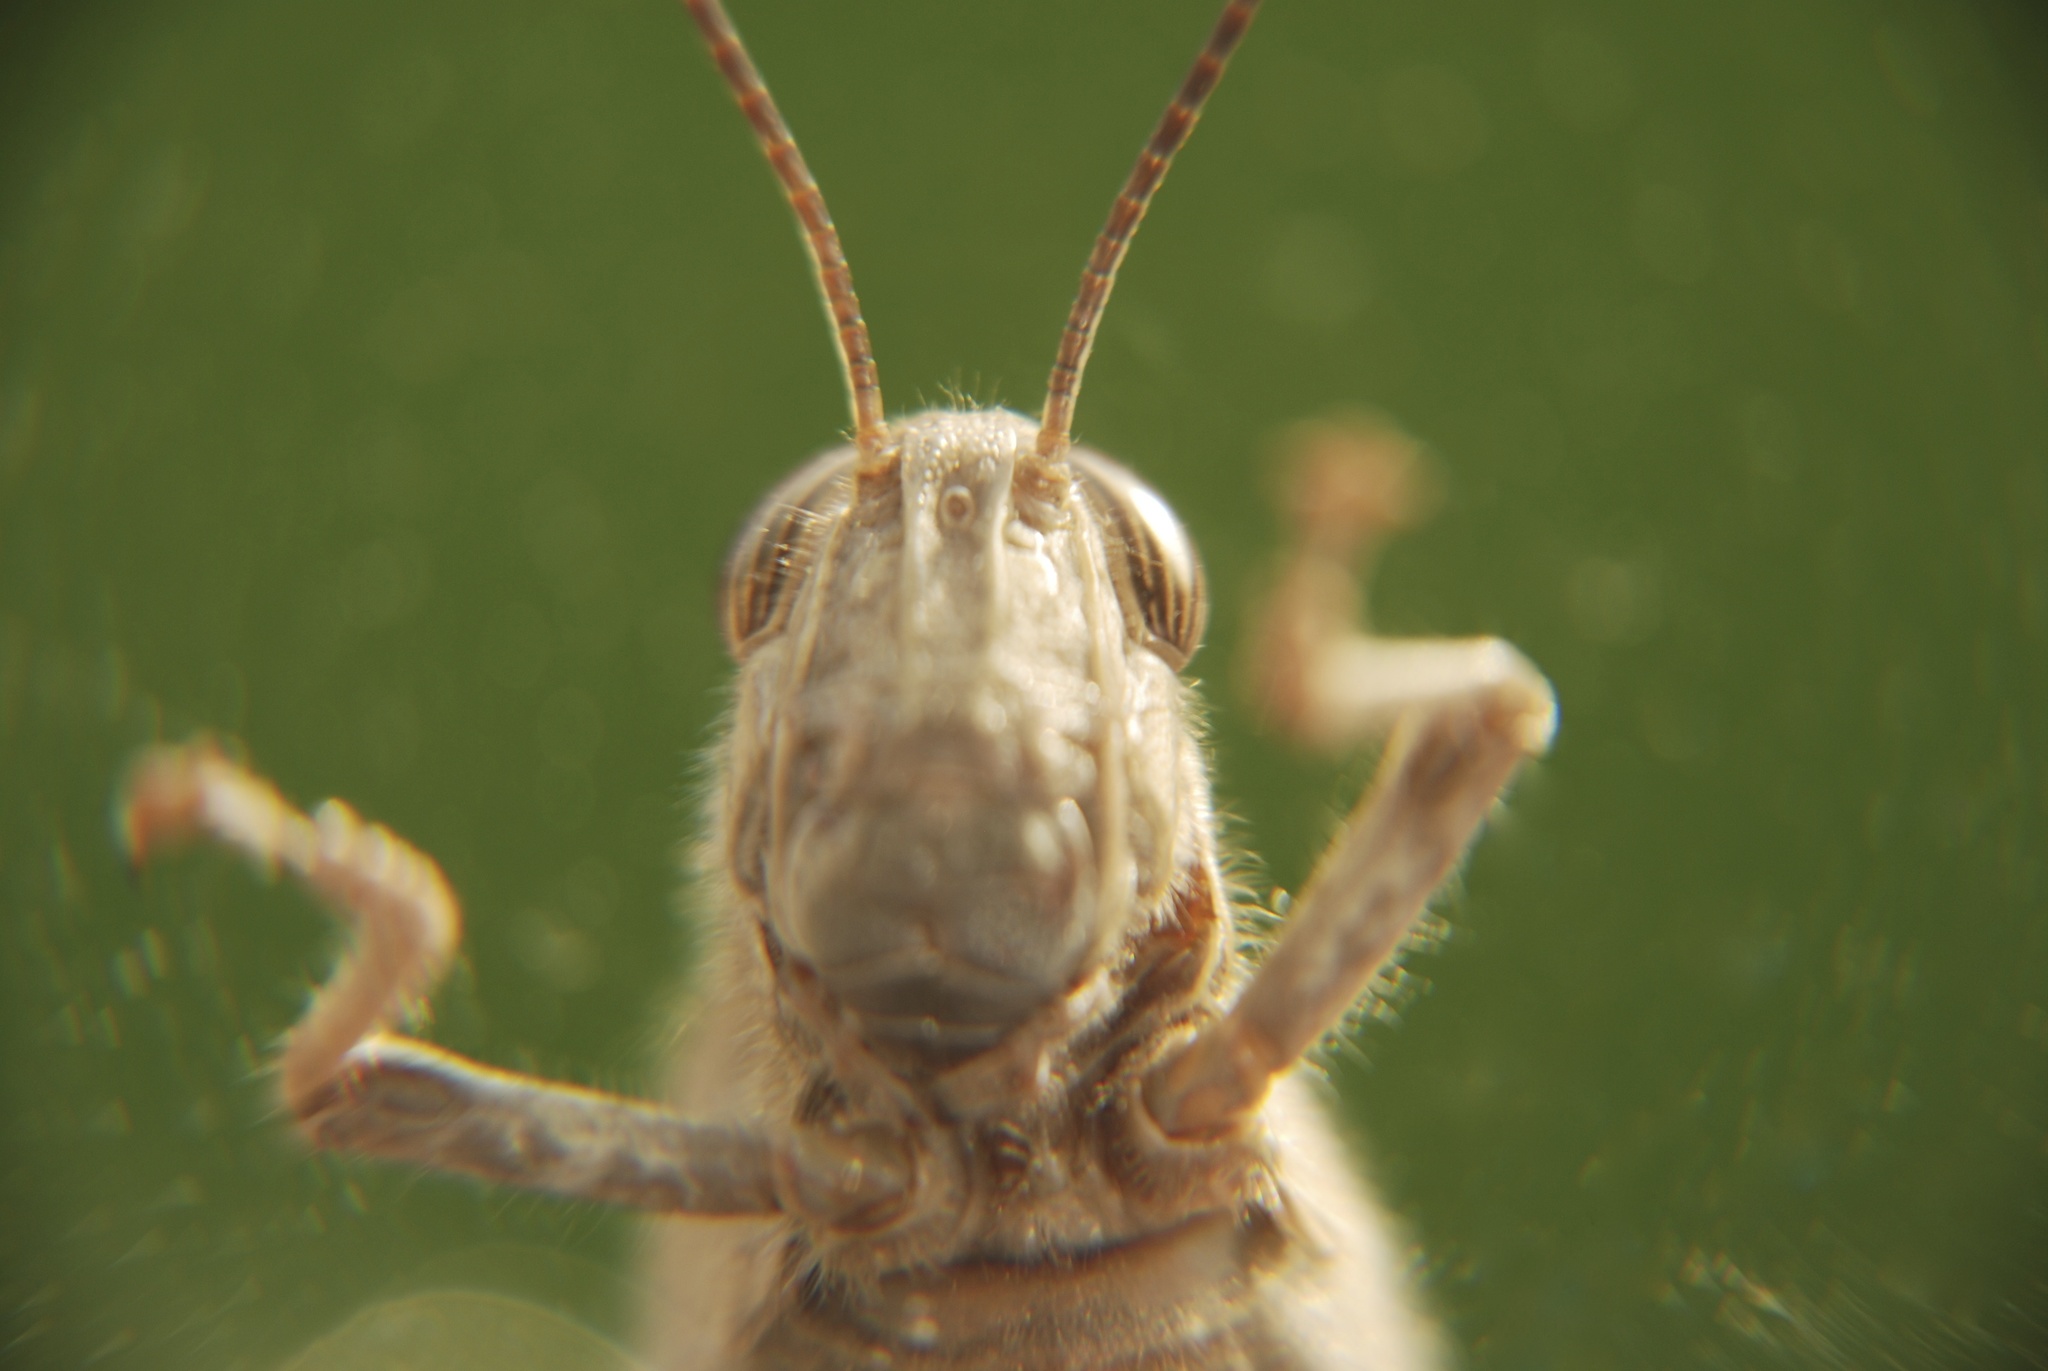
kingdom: Animalia
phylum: Arthropoda
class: Insecta
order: Orthoptera
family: Acrididae
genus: Anacridium
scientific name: Anacridium aegyptium
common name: Egyptian grasshopper
